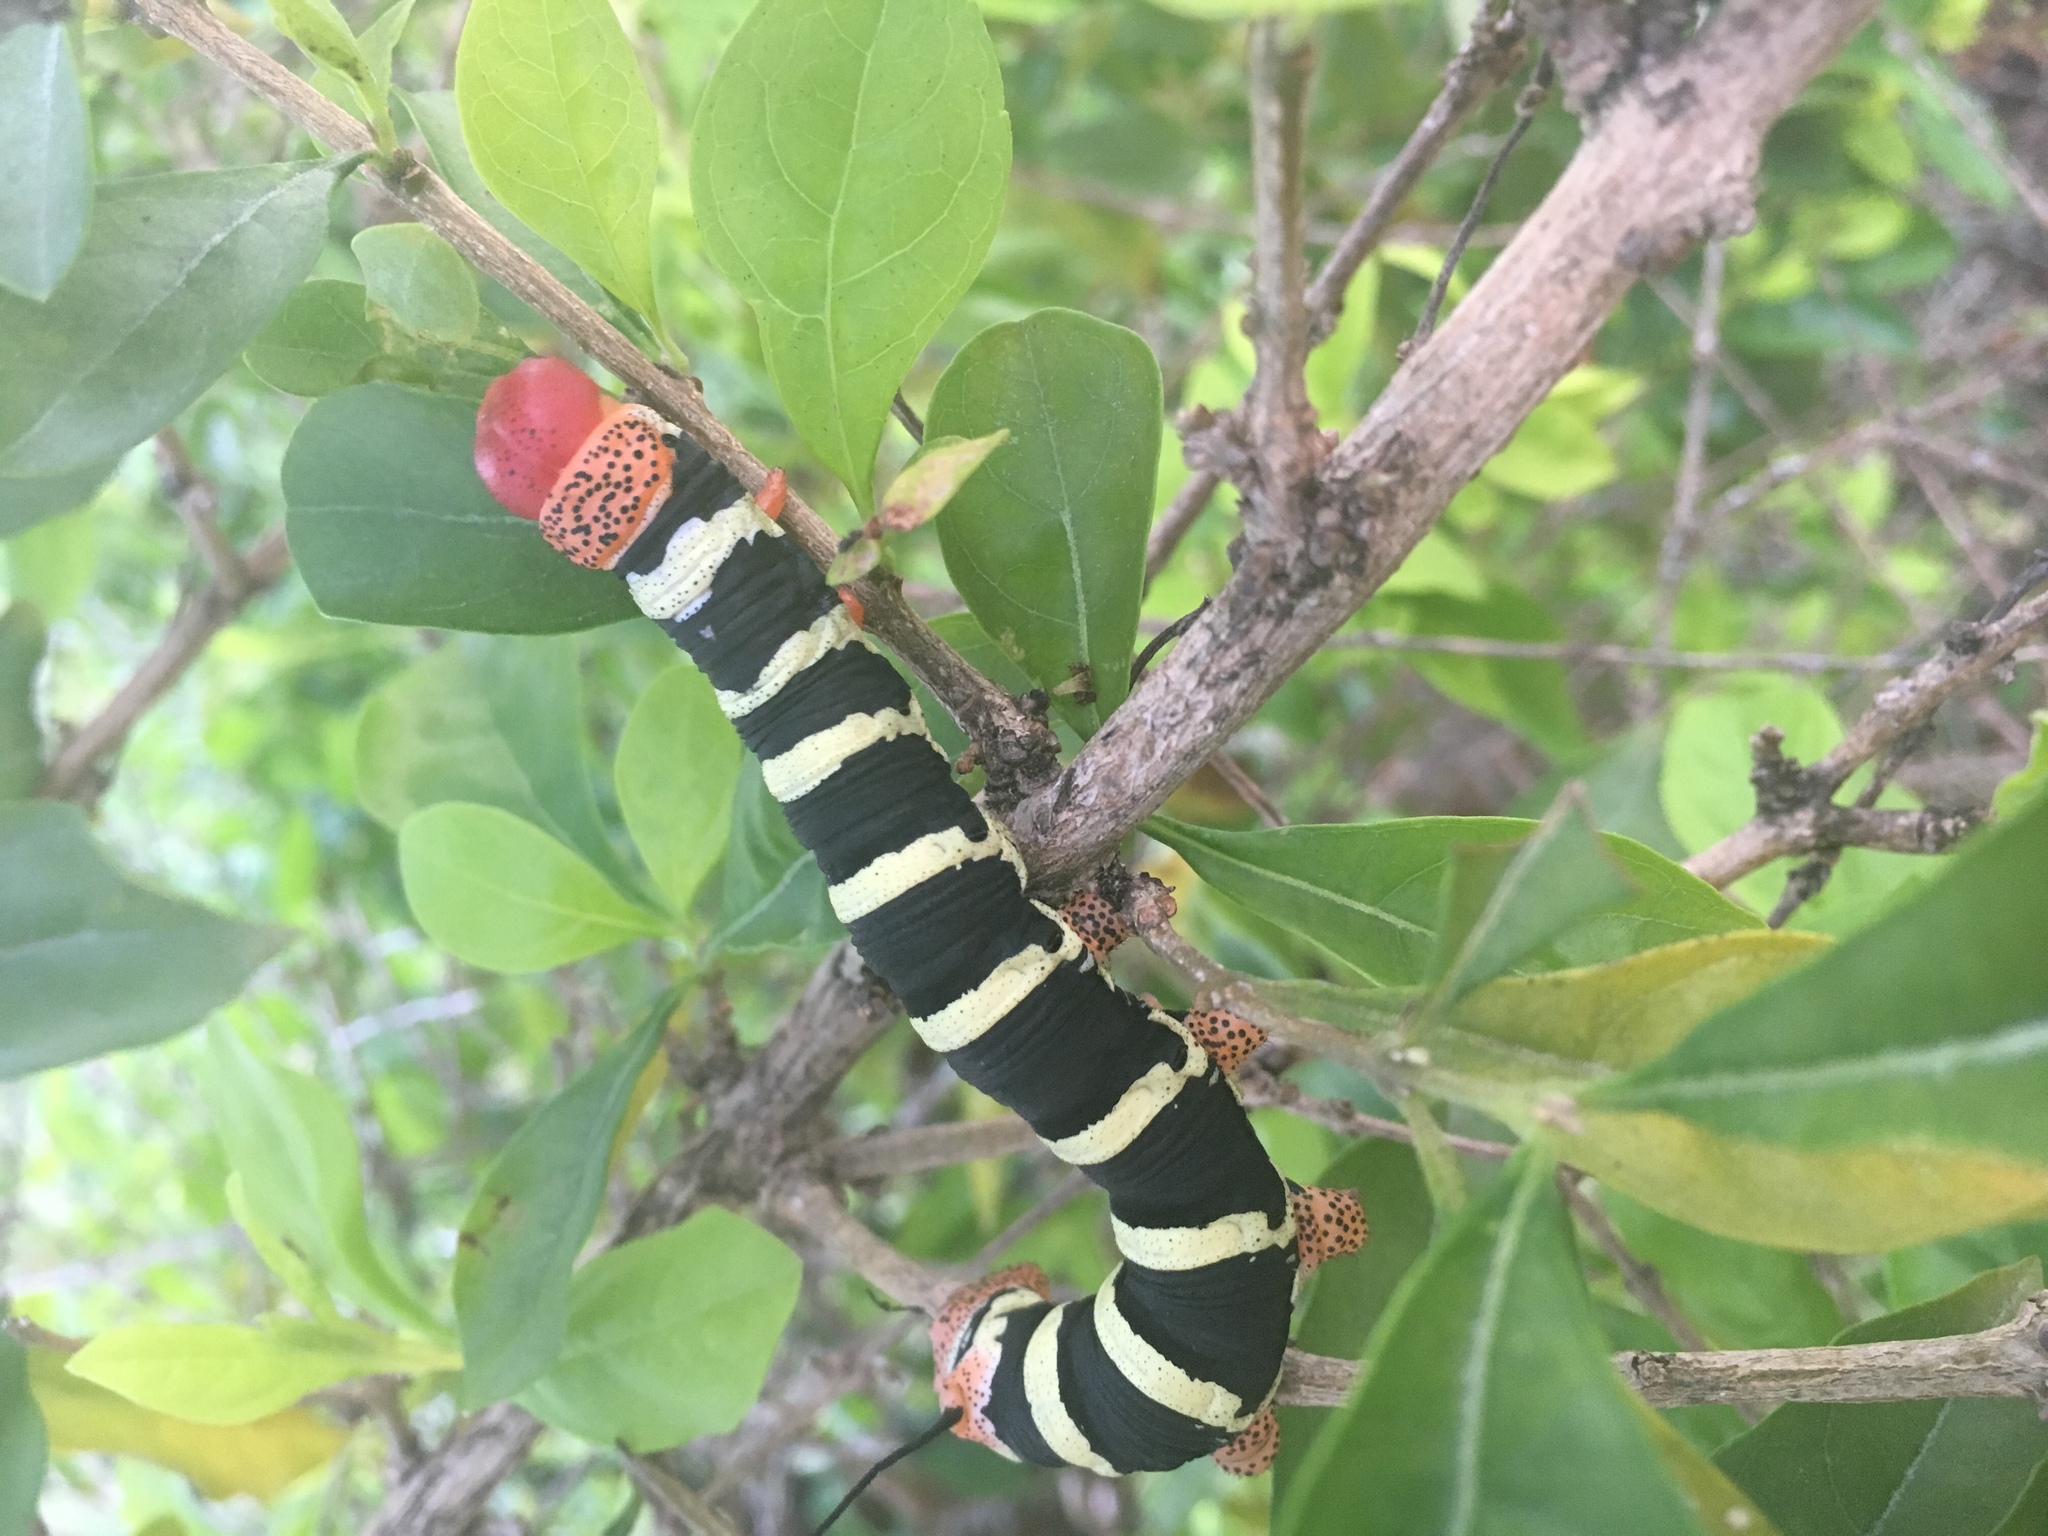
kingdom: Animalia
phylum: Arthropoda
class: Insecta
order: Lepidoptera
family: Sphingidae
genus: Pseudosphinx
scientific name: Pseudosphinx tetrio
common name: Tetrio sphinx
